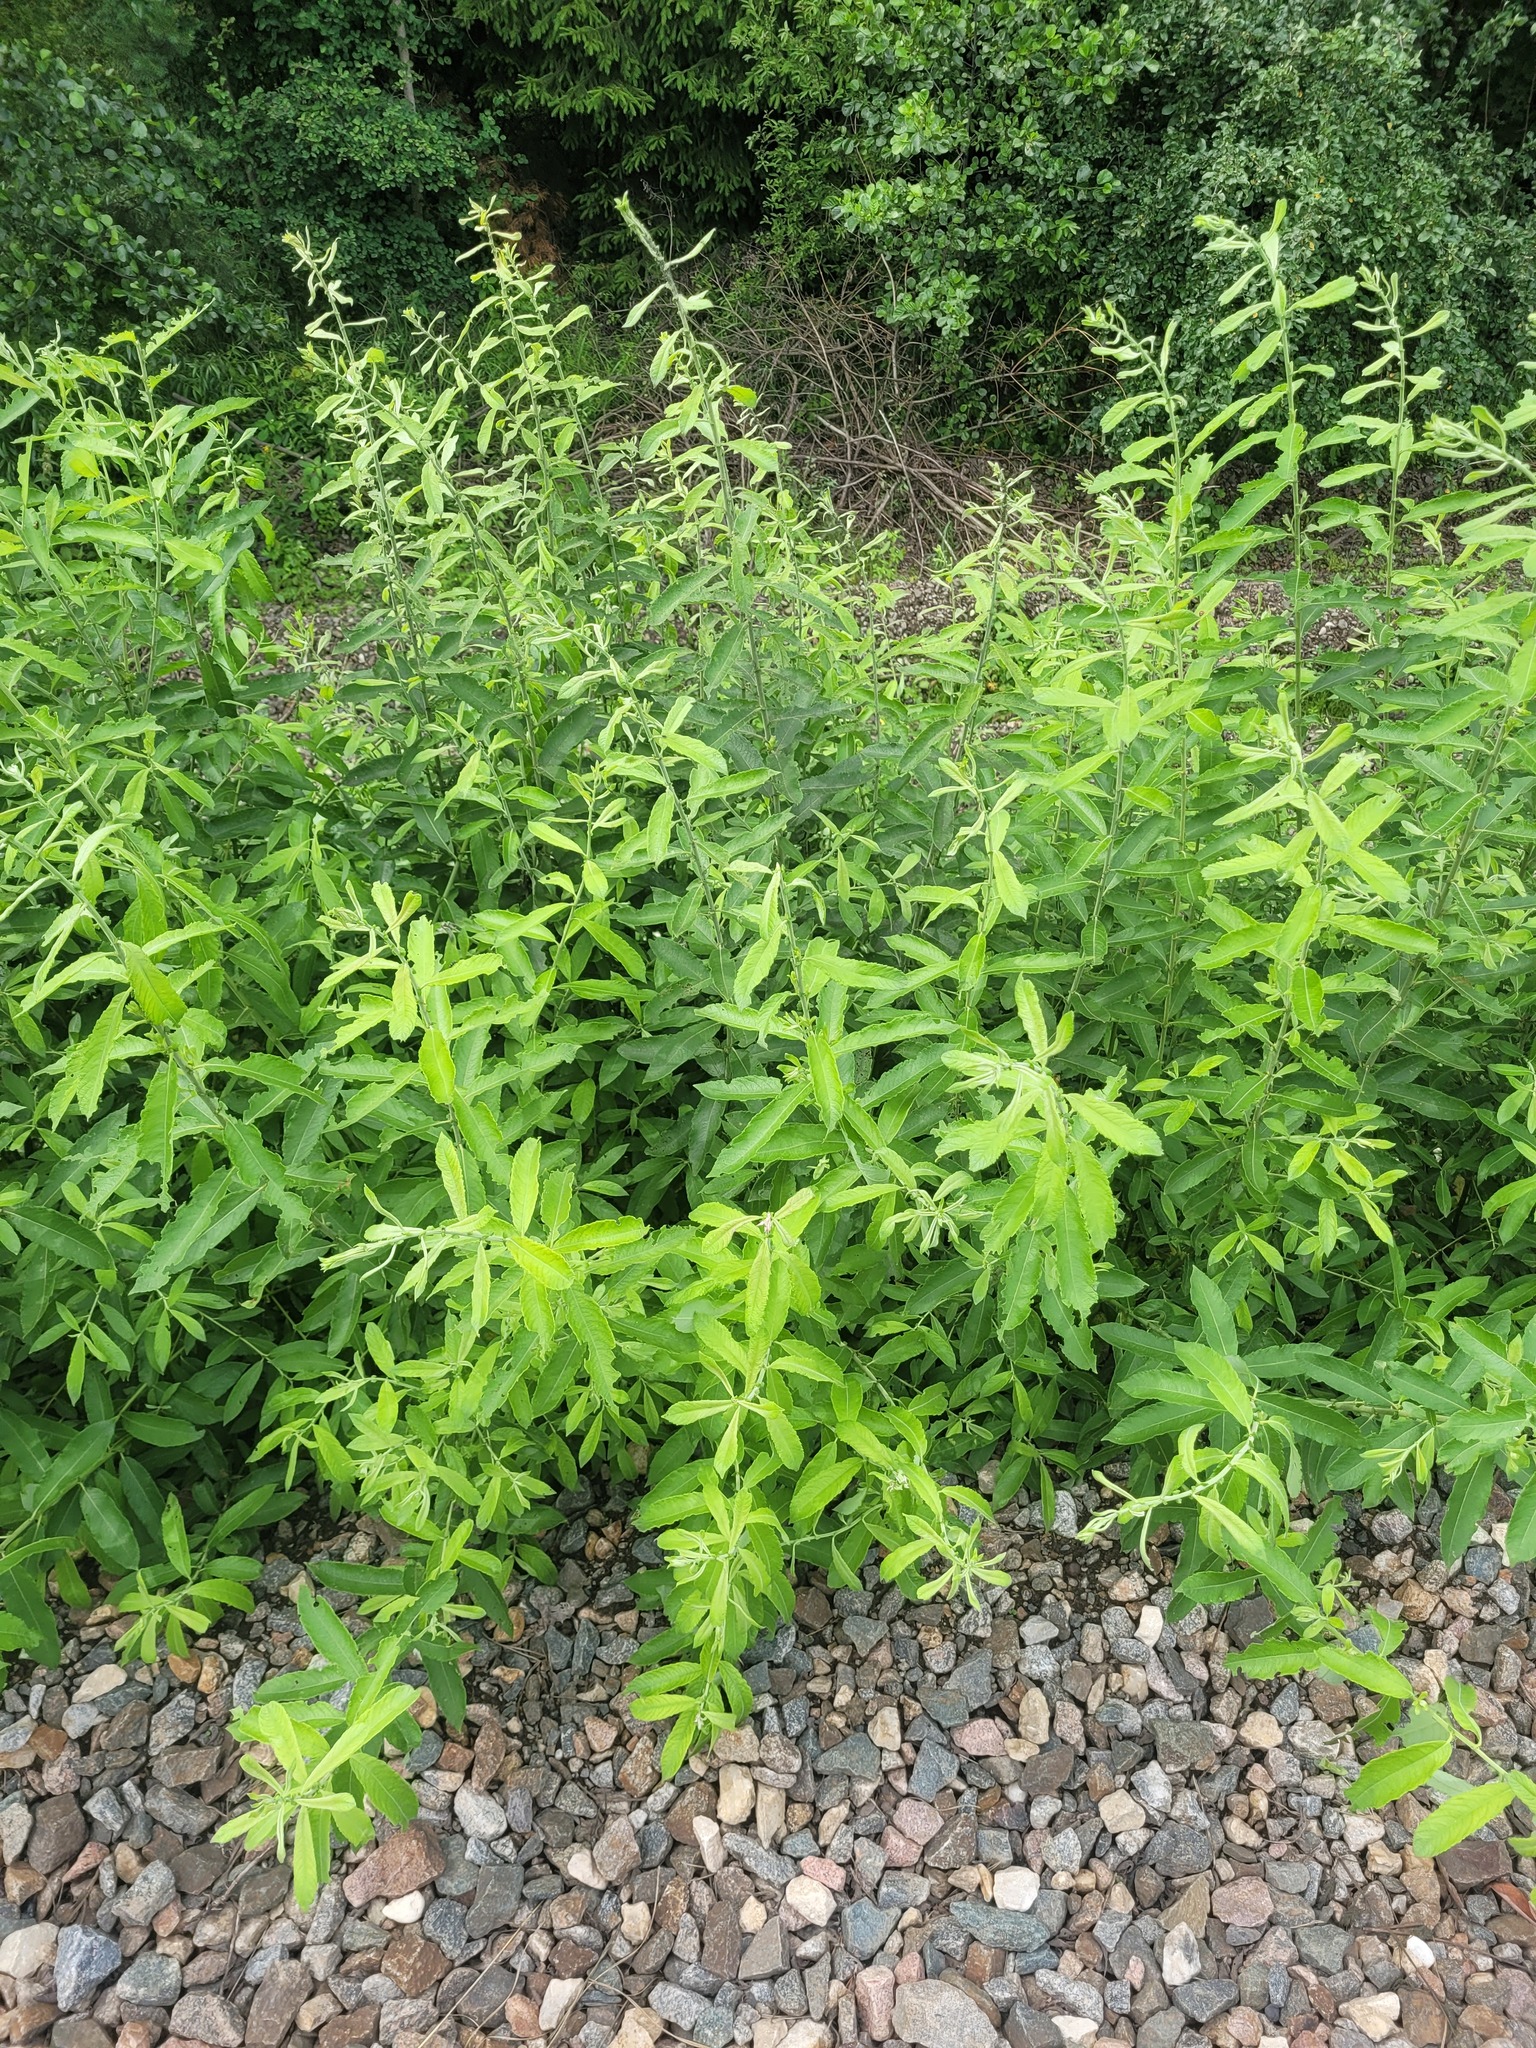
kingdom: Plantae
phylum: Tracheophyta
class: Magnoliopsida
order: Malpighiales
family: Salicaceae
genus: Salix
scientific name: Salix cinerea
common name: Common sallow
